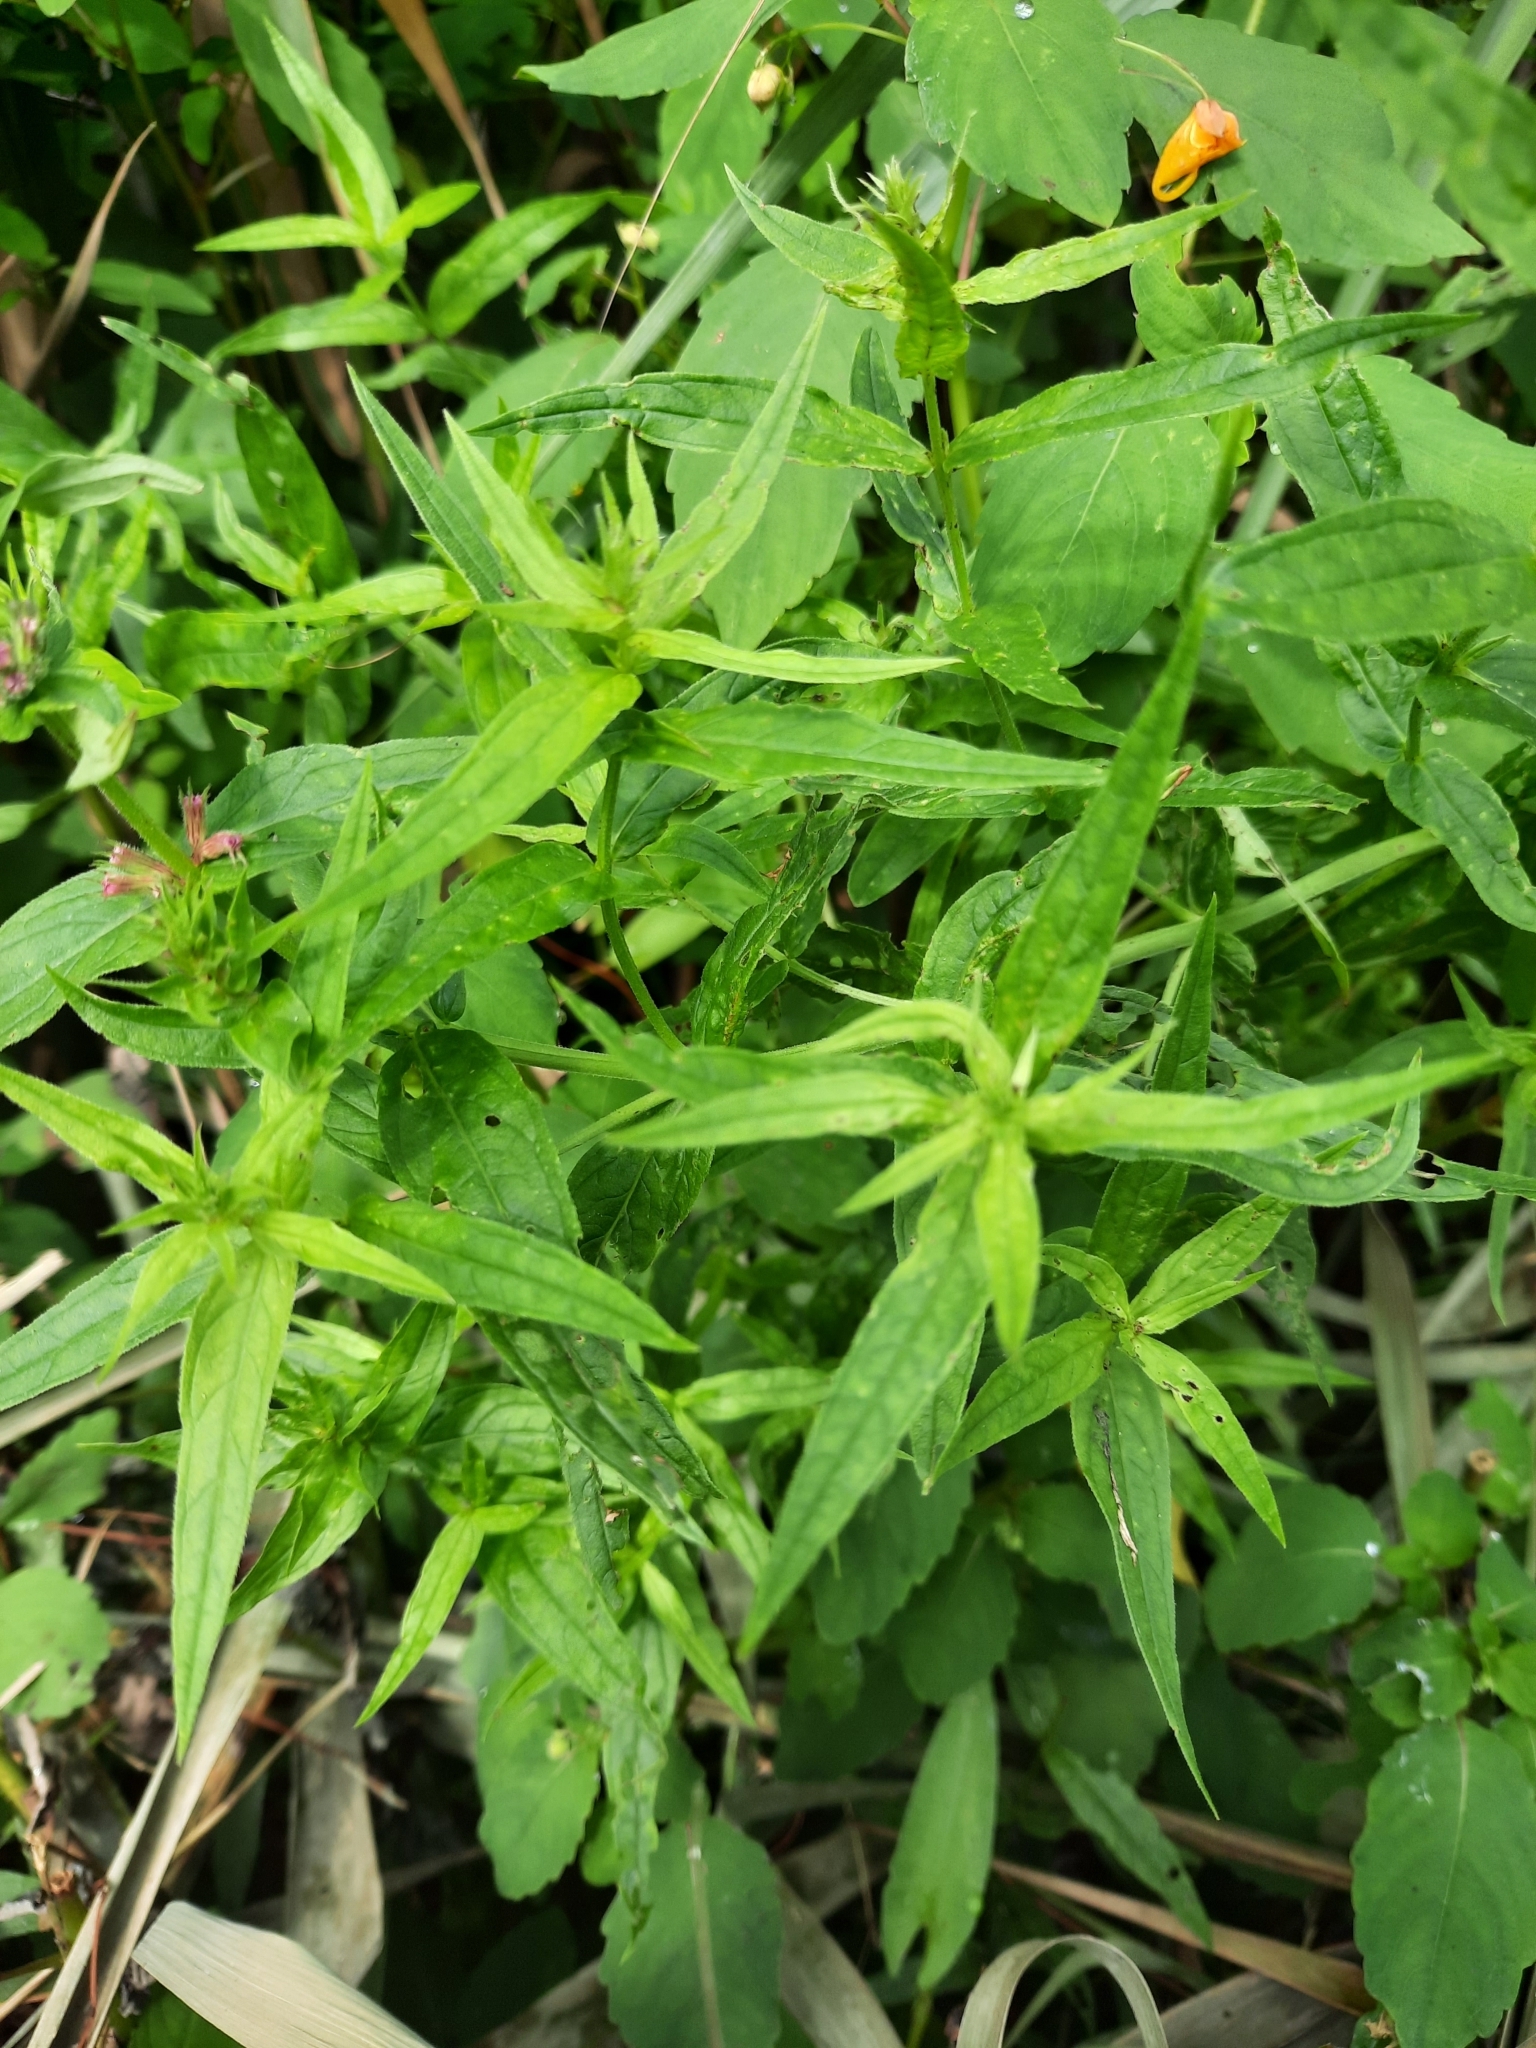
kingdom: Plantae
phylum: Tracheophyta
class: Magnoliopsida
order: Myrtales
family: Lythraceae
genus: Lythrum
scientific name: Lythrum salicaria
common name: Purple loosestrife
